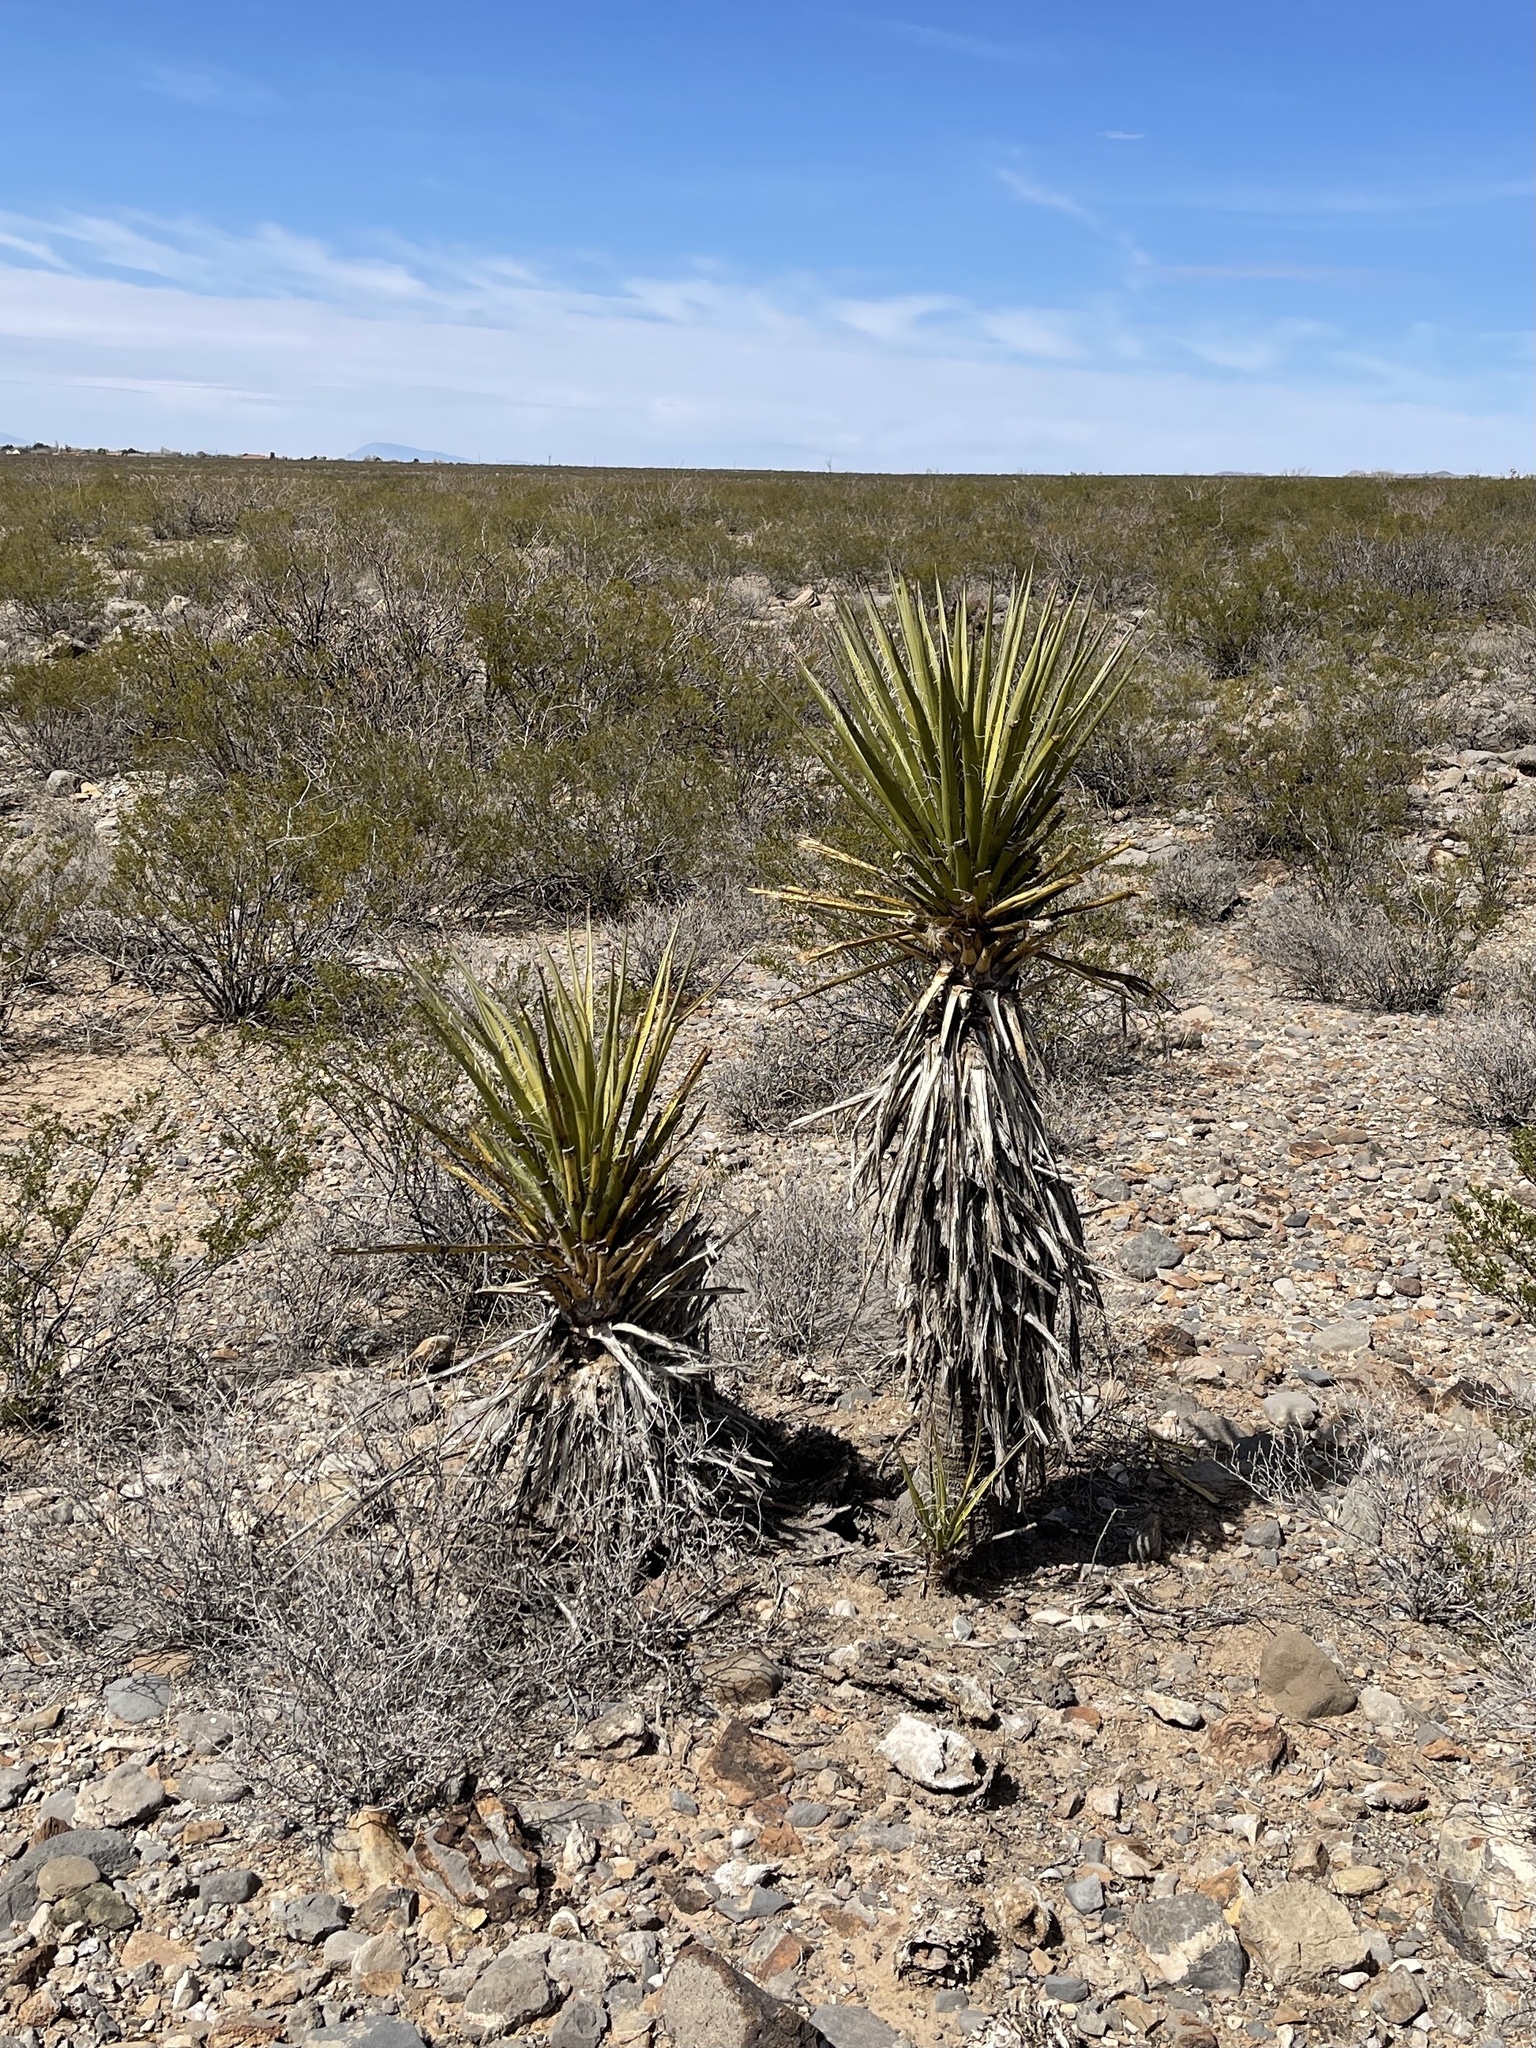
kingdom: Plantae
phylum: Tracheophyta
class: Liliopsida
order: Asparagales
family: Asparagaceae
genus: Yucca
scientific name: Yucca treculiana
